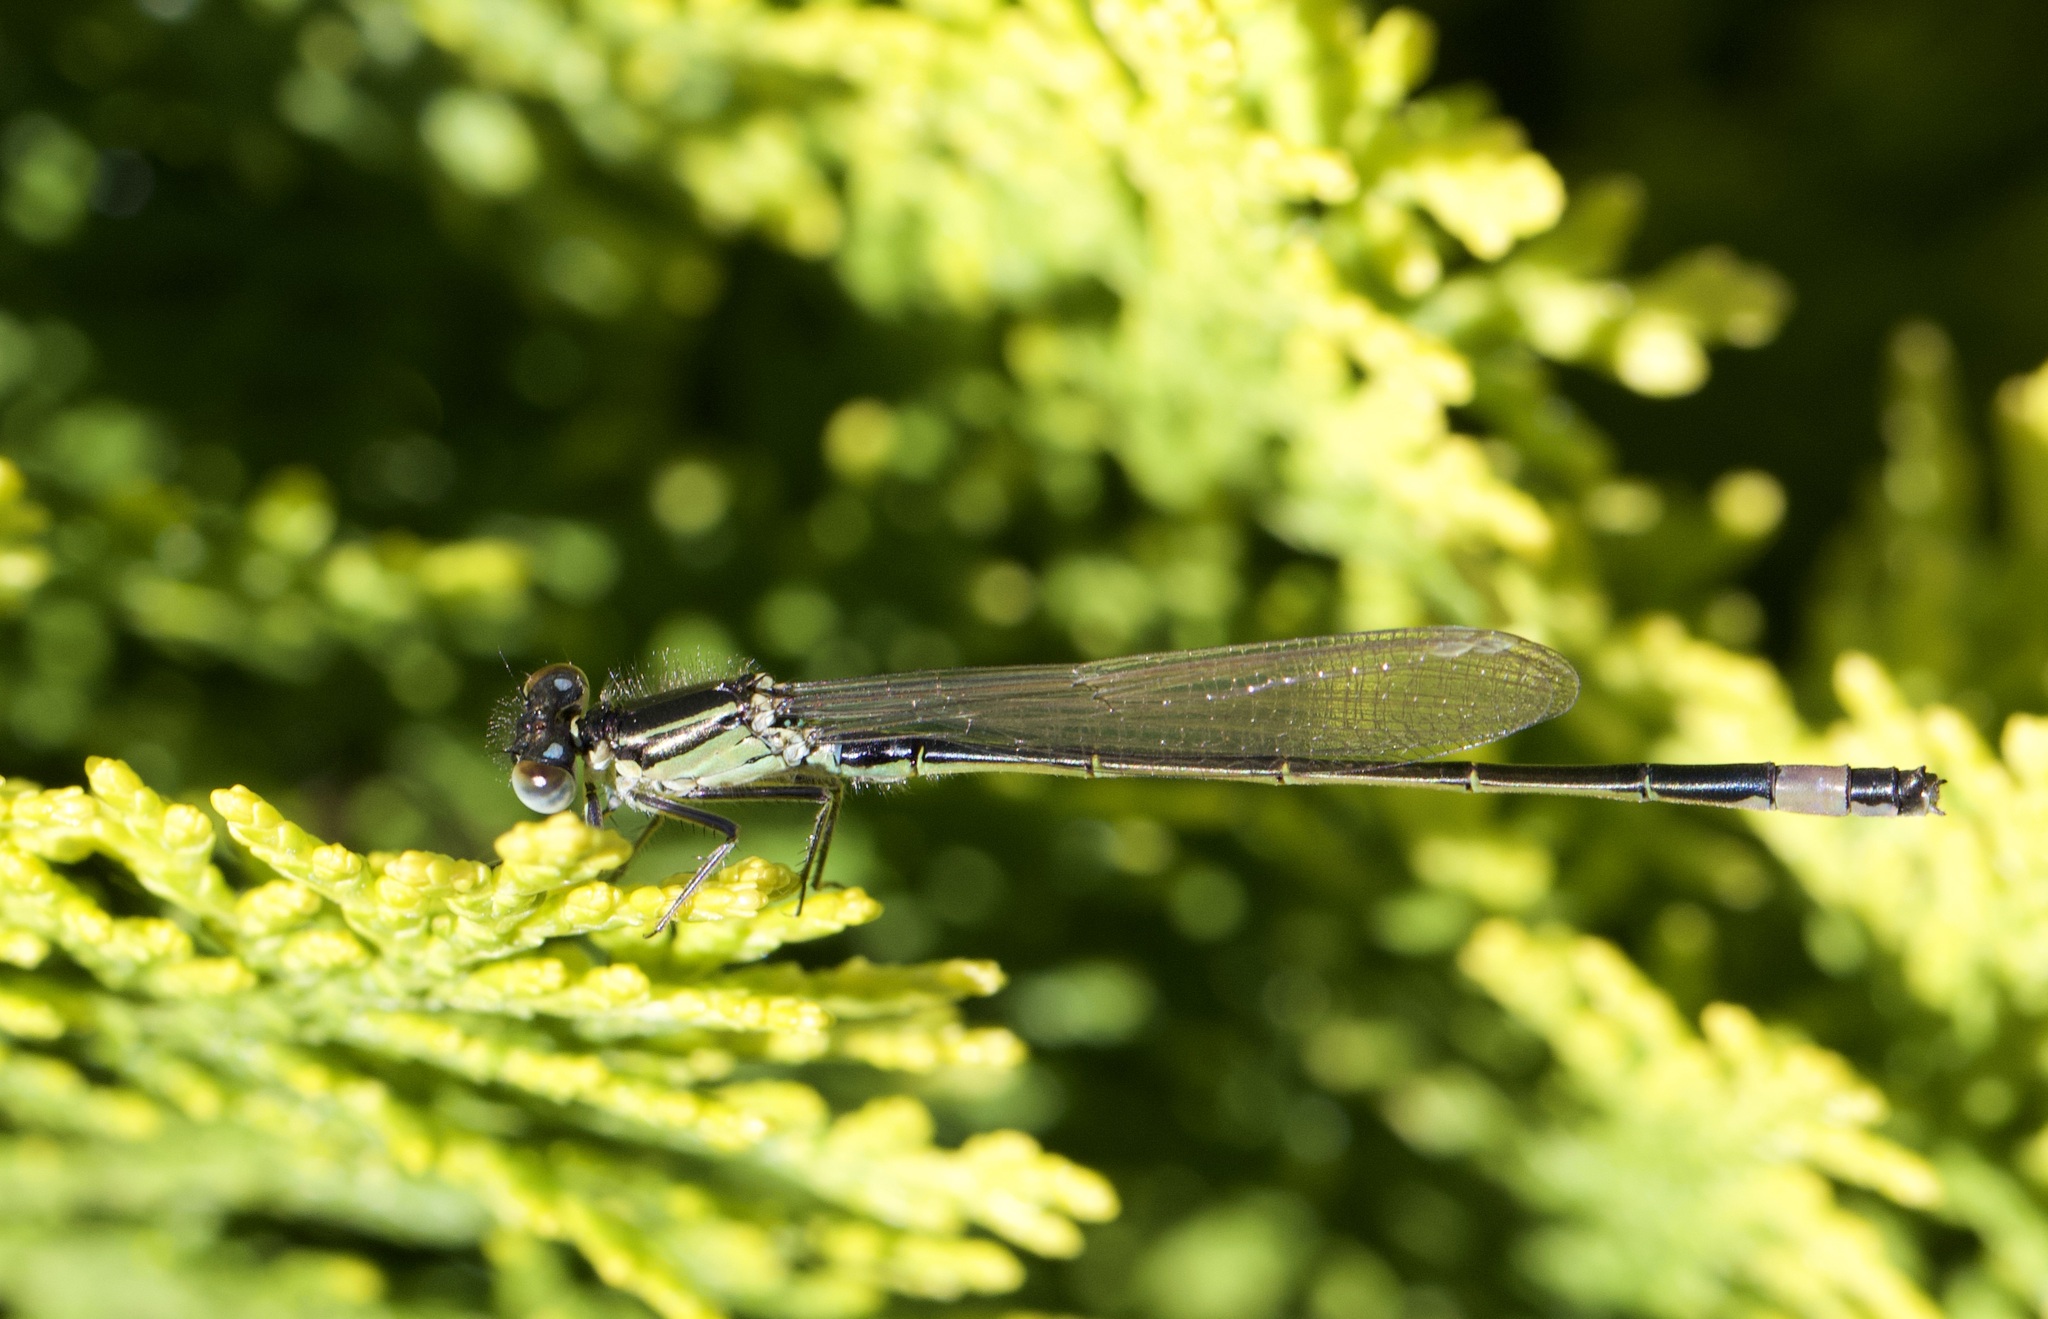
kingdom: Animalia
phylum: Arthropoda
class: Insecta
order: Odonata
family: Coenagrionidae
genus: Ischnura
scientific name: Ischnura elegans
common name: Blue-tailed damselfly
